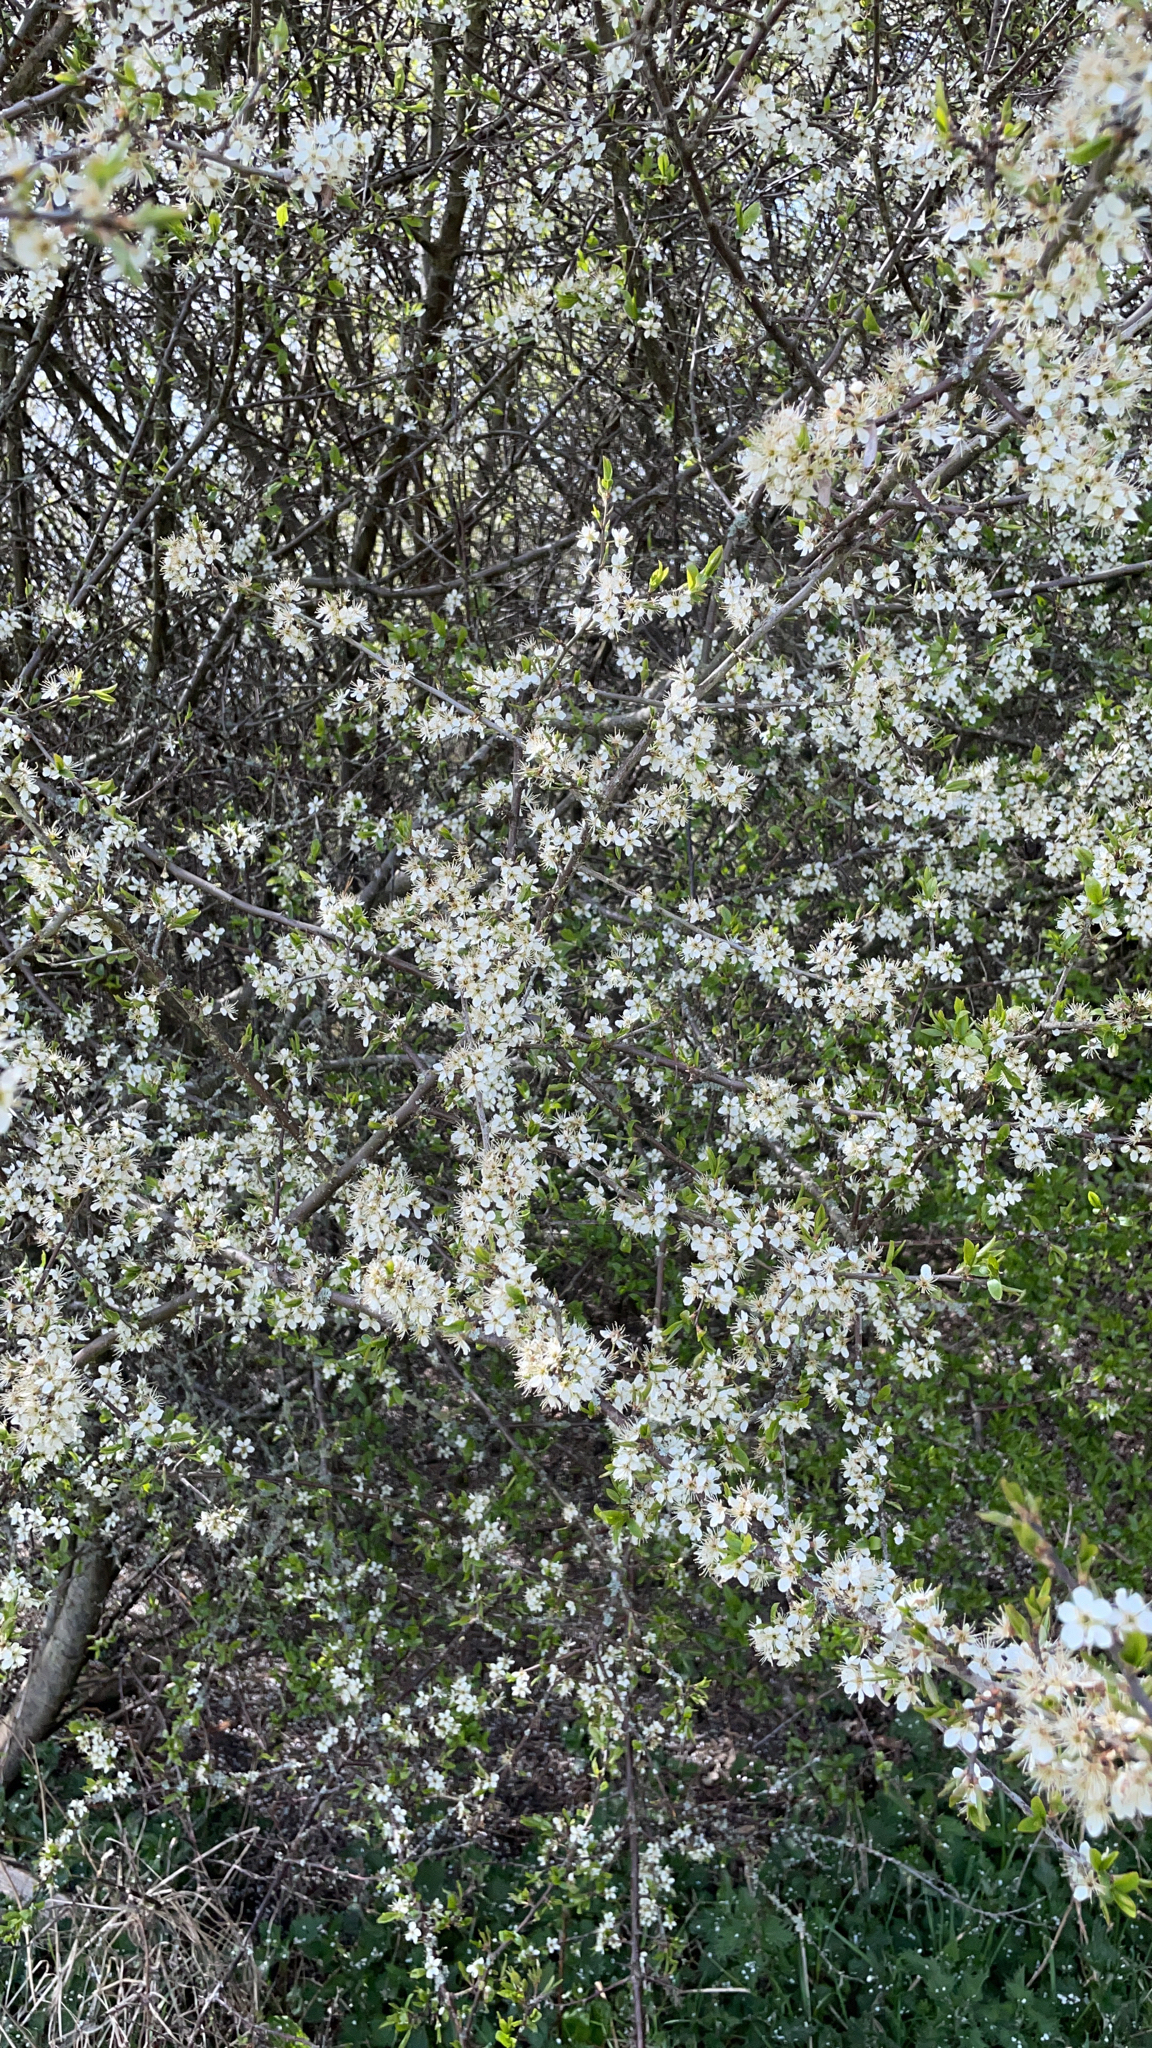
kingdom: Plantae
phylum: Tracheophyta
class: Magnoliopsida
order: Rosales
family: Rosaceae
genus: Prunus
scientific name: Prunus spinosa
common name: Blackthorn
